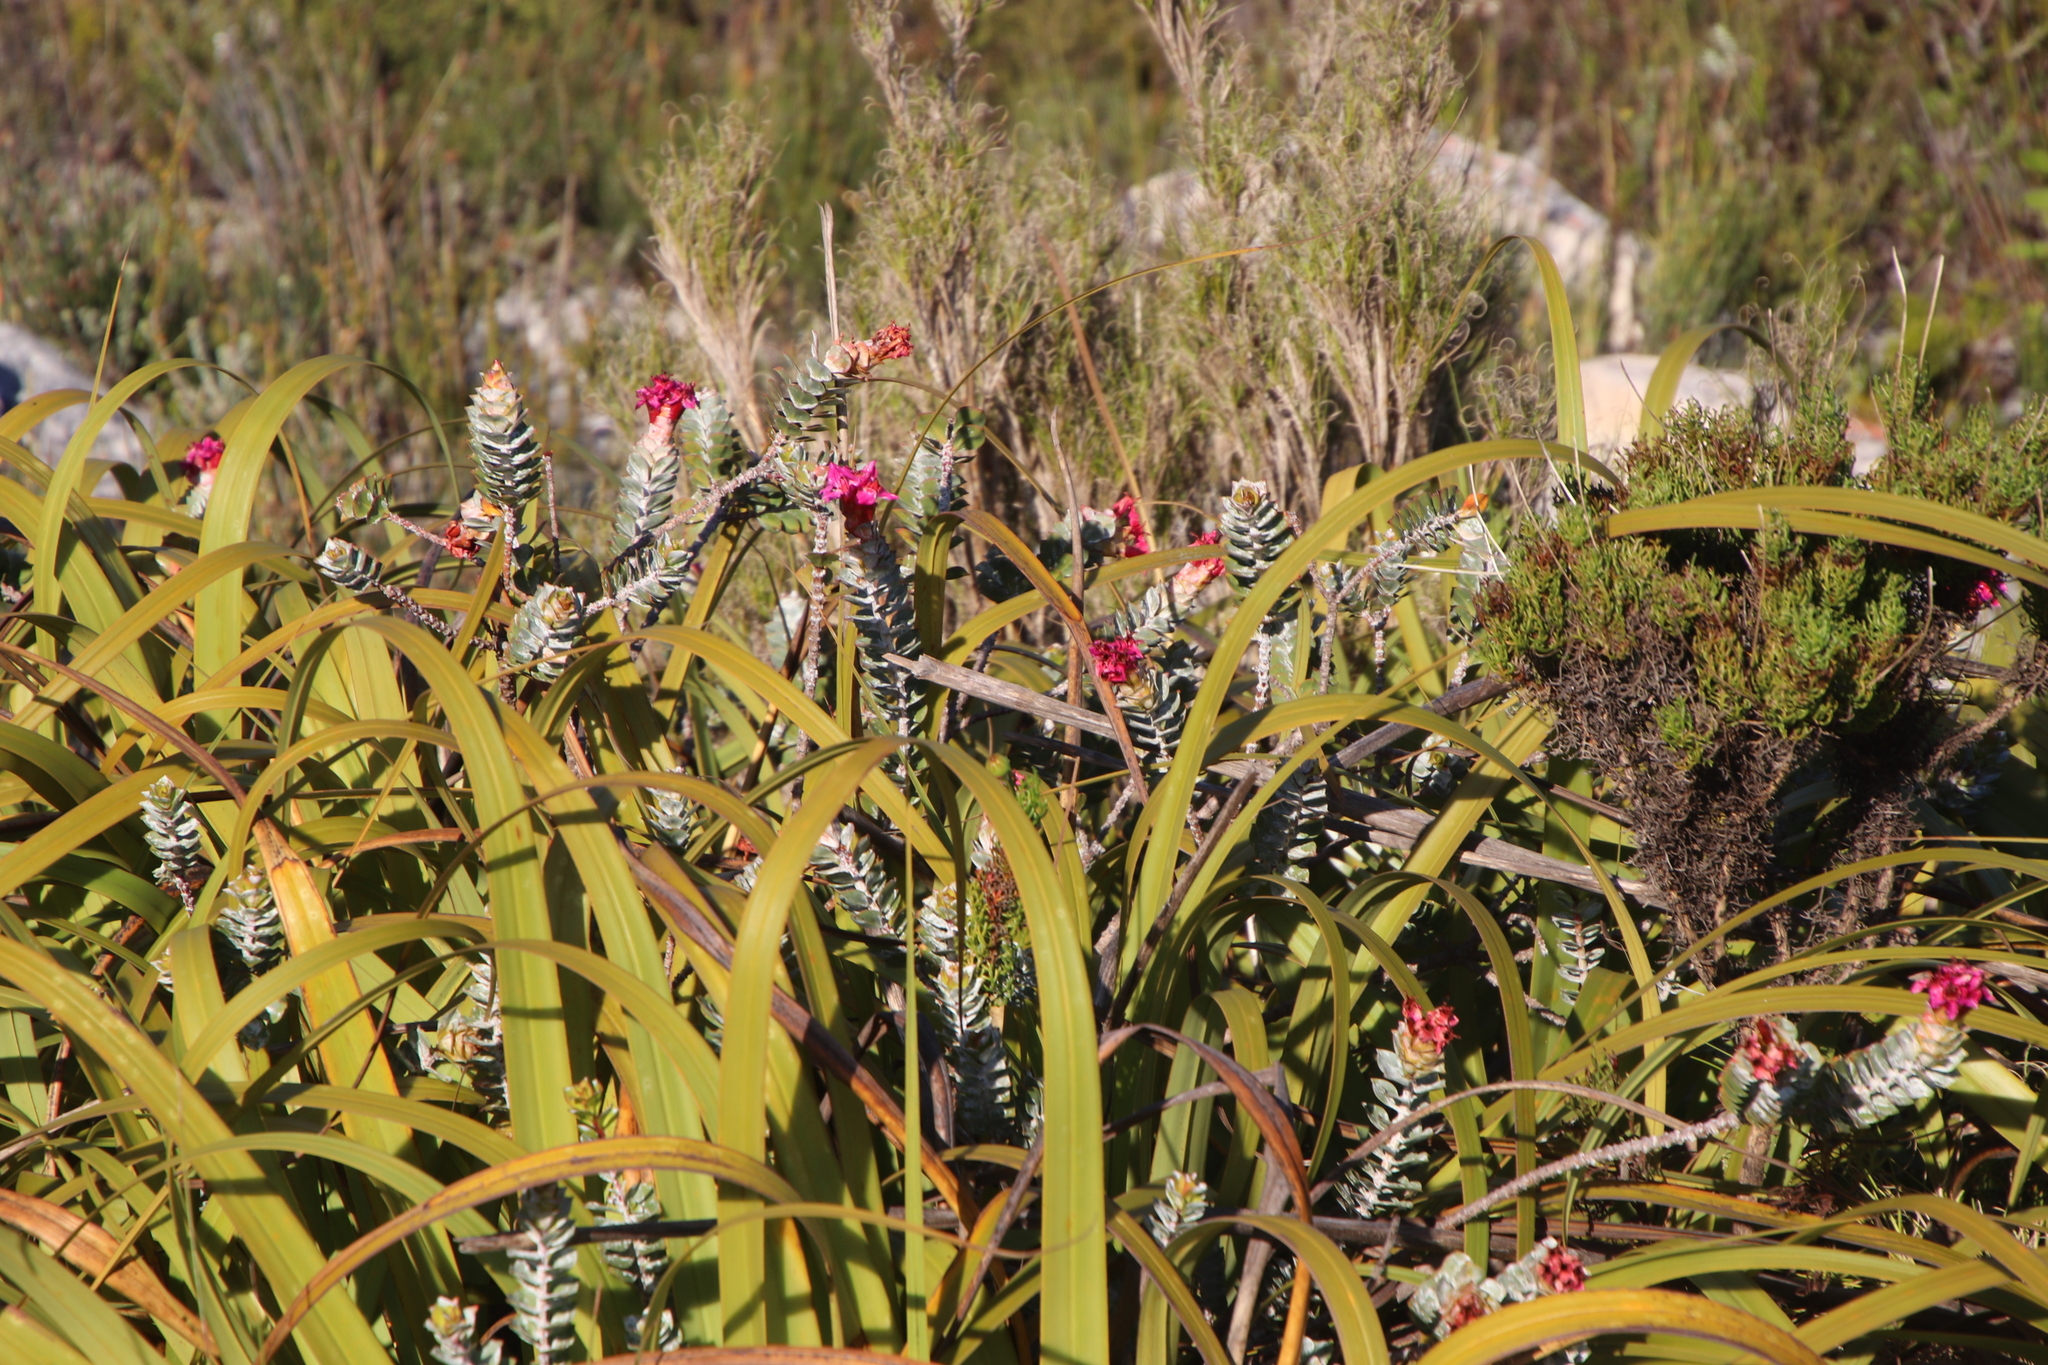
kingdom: Plantae
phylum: Tracheophyta
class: Magnoliopsida
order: Myrtales
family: Penaeaceae
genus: Saltera
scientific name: Saltera sarcocolla
